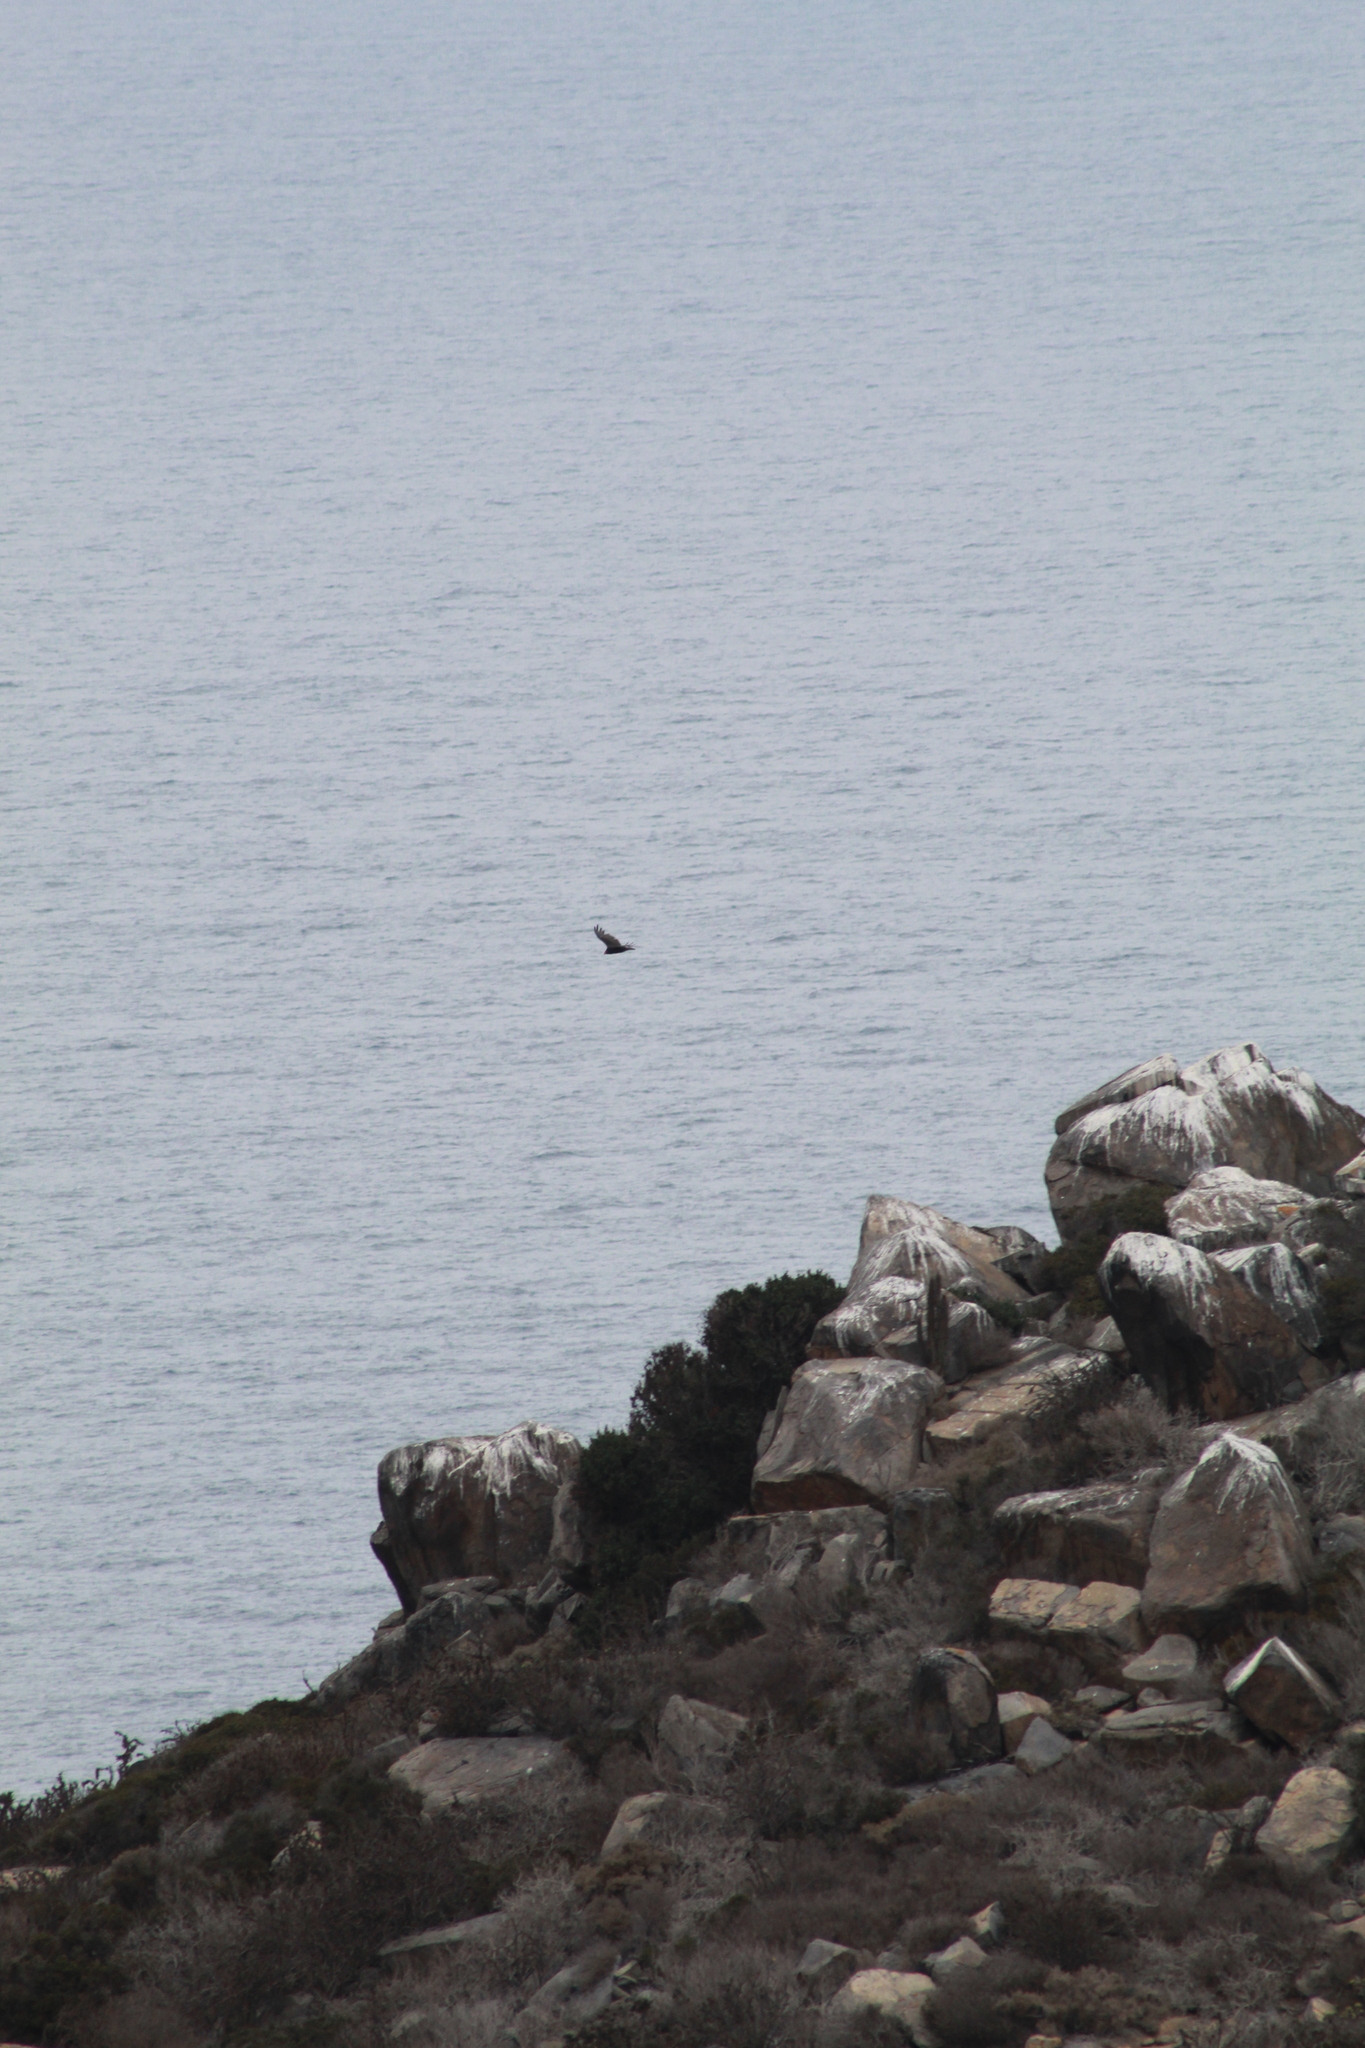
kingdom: Animalia
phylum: Chordata
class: Aves
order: Accipitriformes
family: Cathartidae
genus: Cathartes
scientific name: Cathartes aura
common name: Turkey vulture
